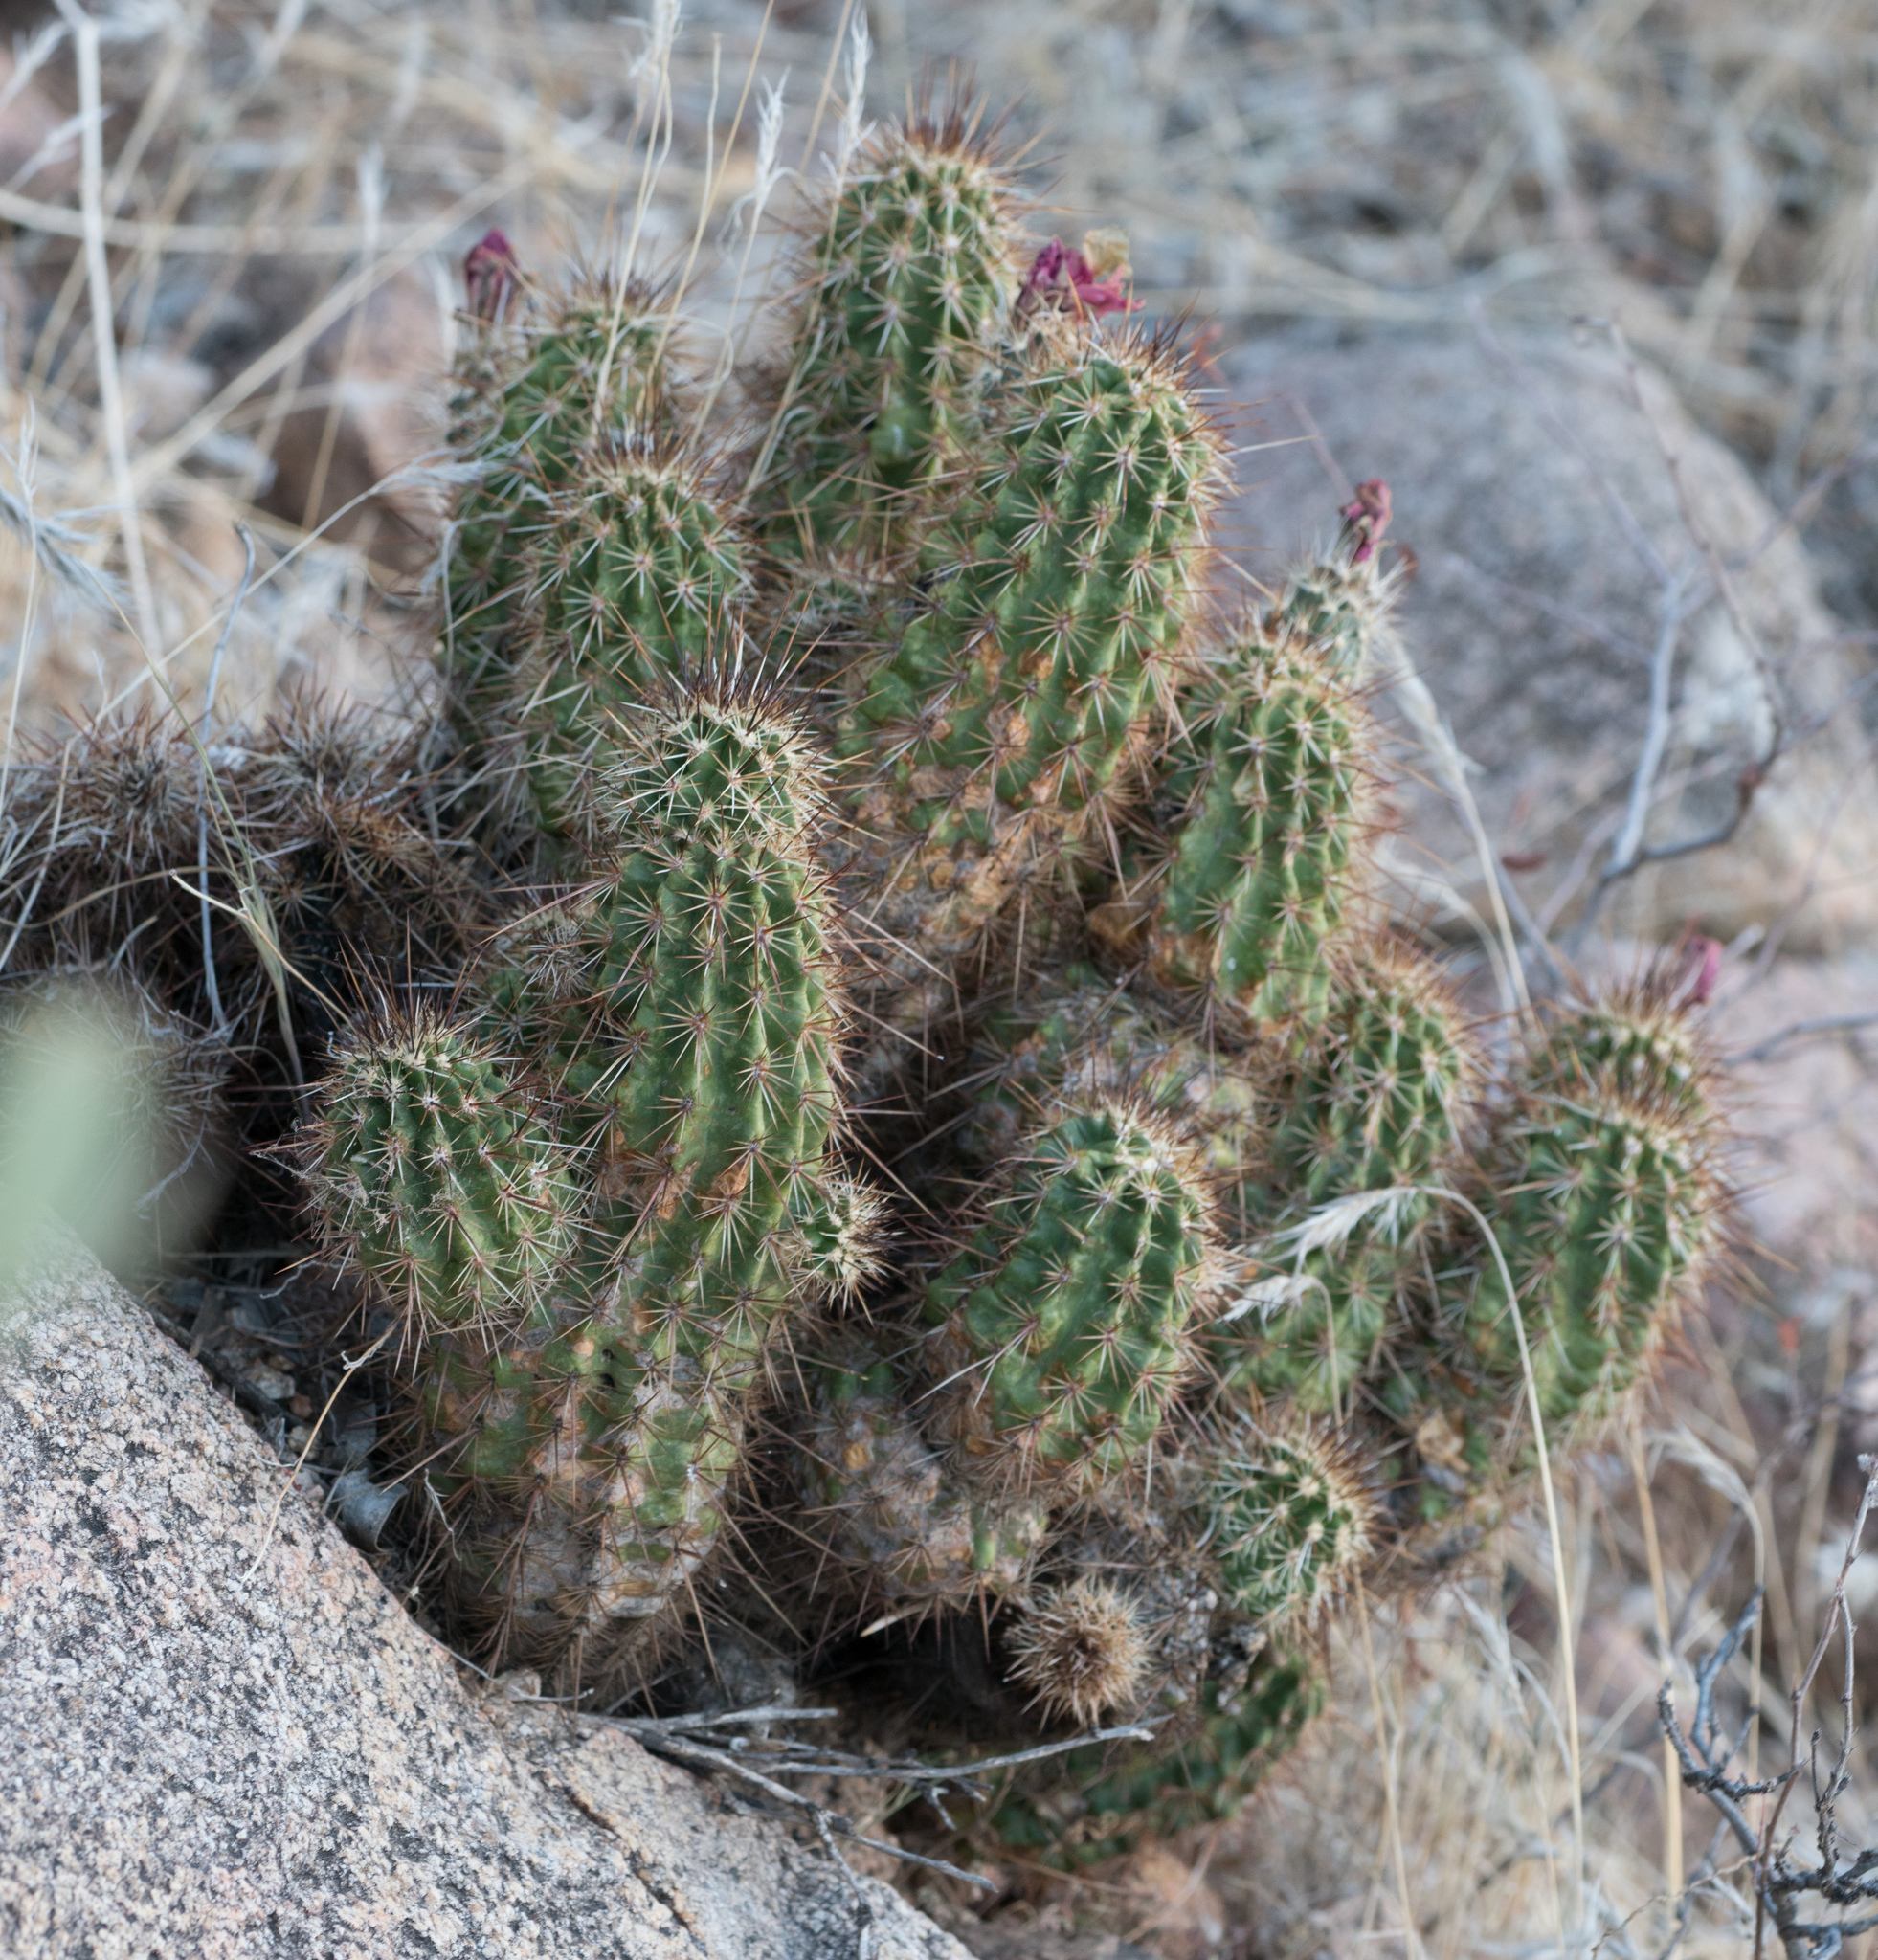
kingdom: Plantae
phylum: Tracheophyta
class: Magnoliopsida
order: Caryophyllales
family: Cactaceae
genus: Echinocereus
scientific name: Echinocereus fasciculatus
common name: Bundle hedgehog
